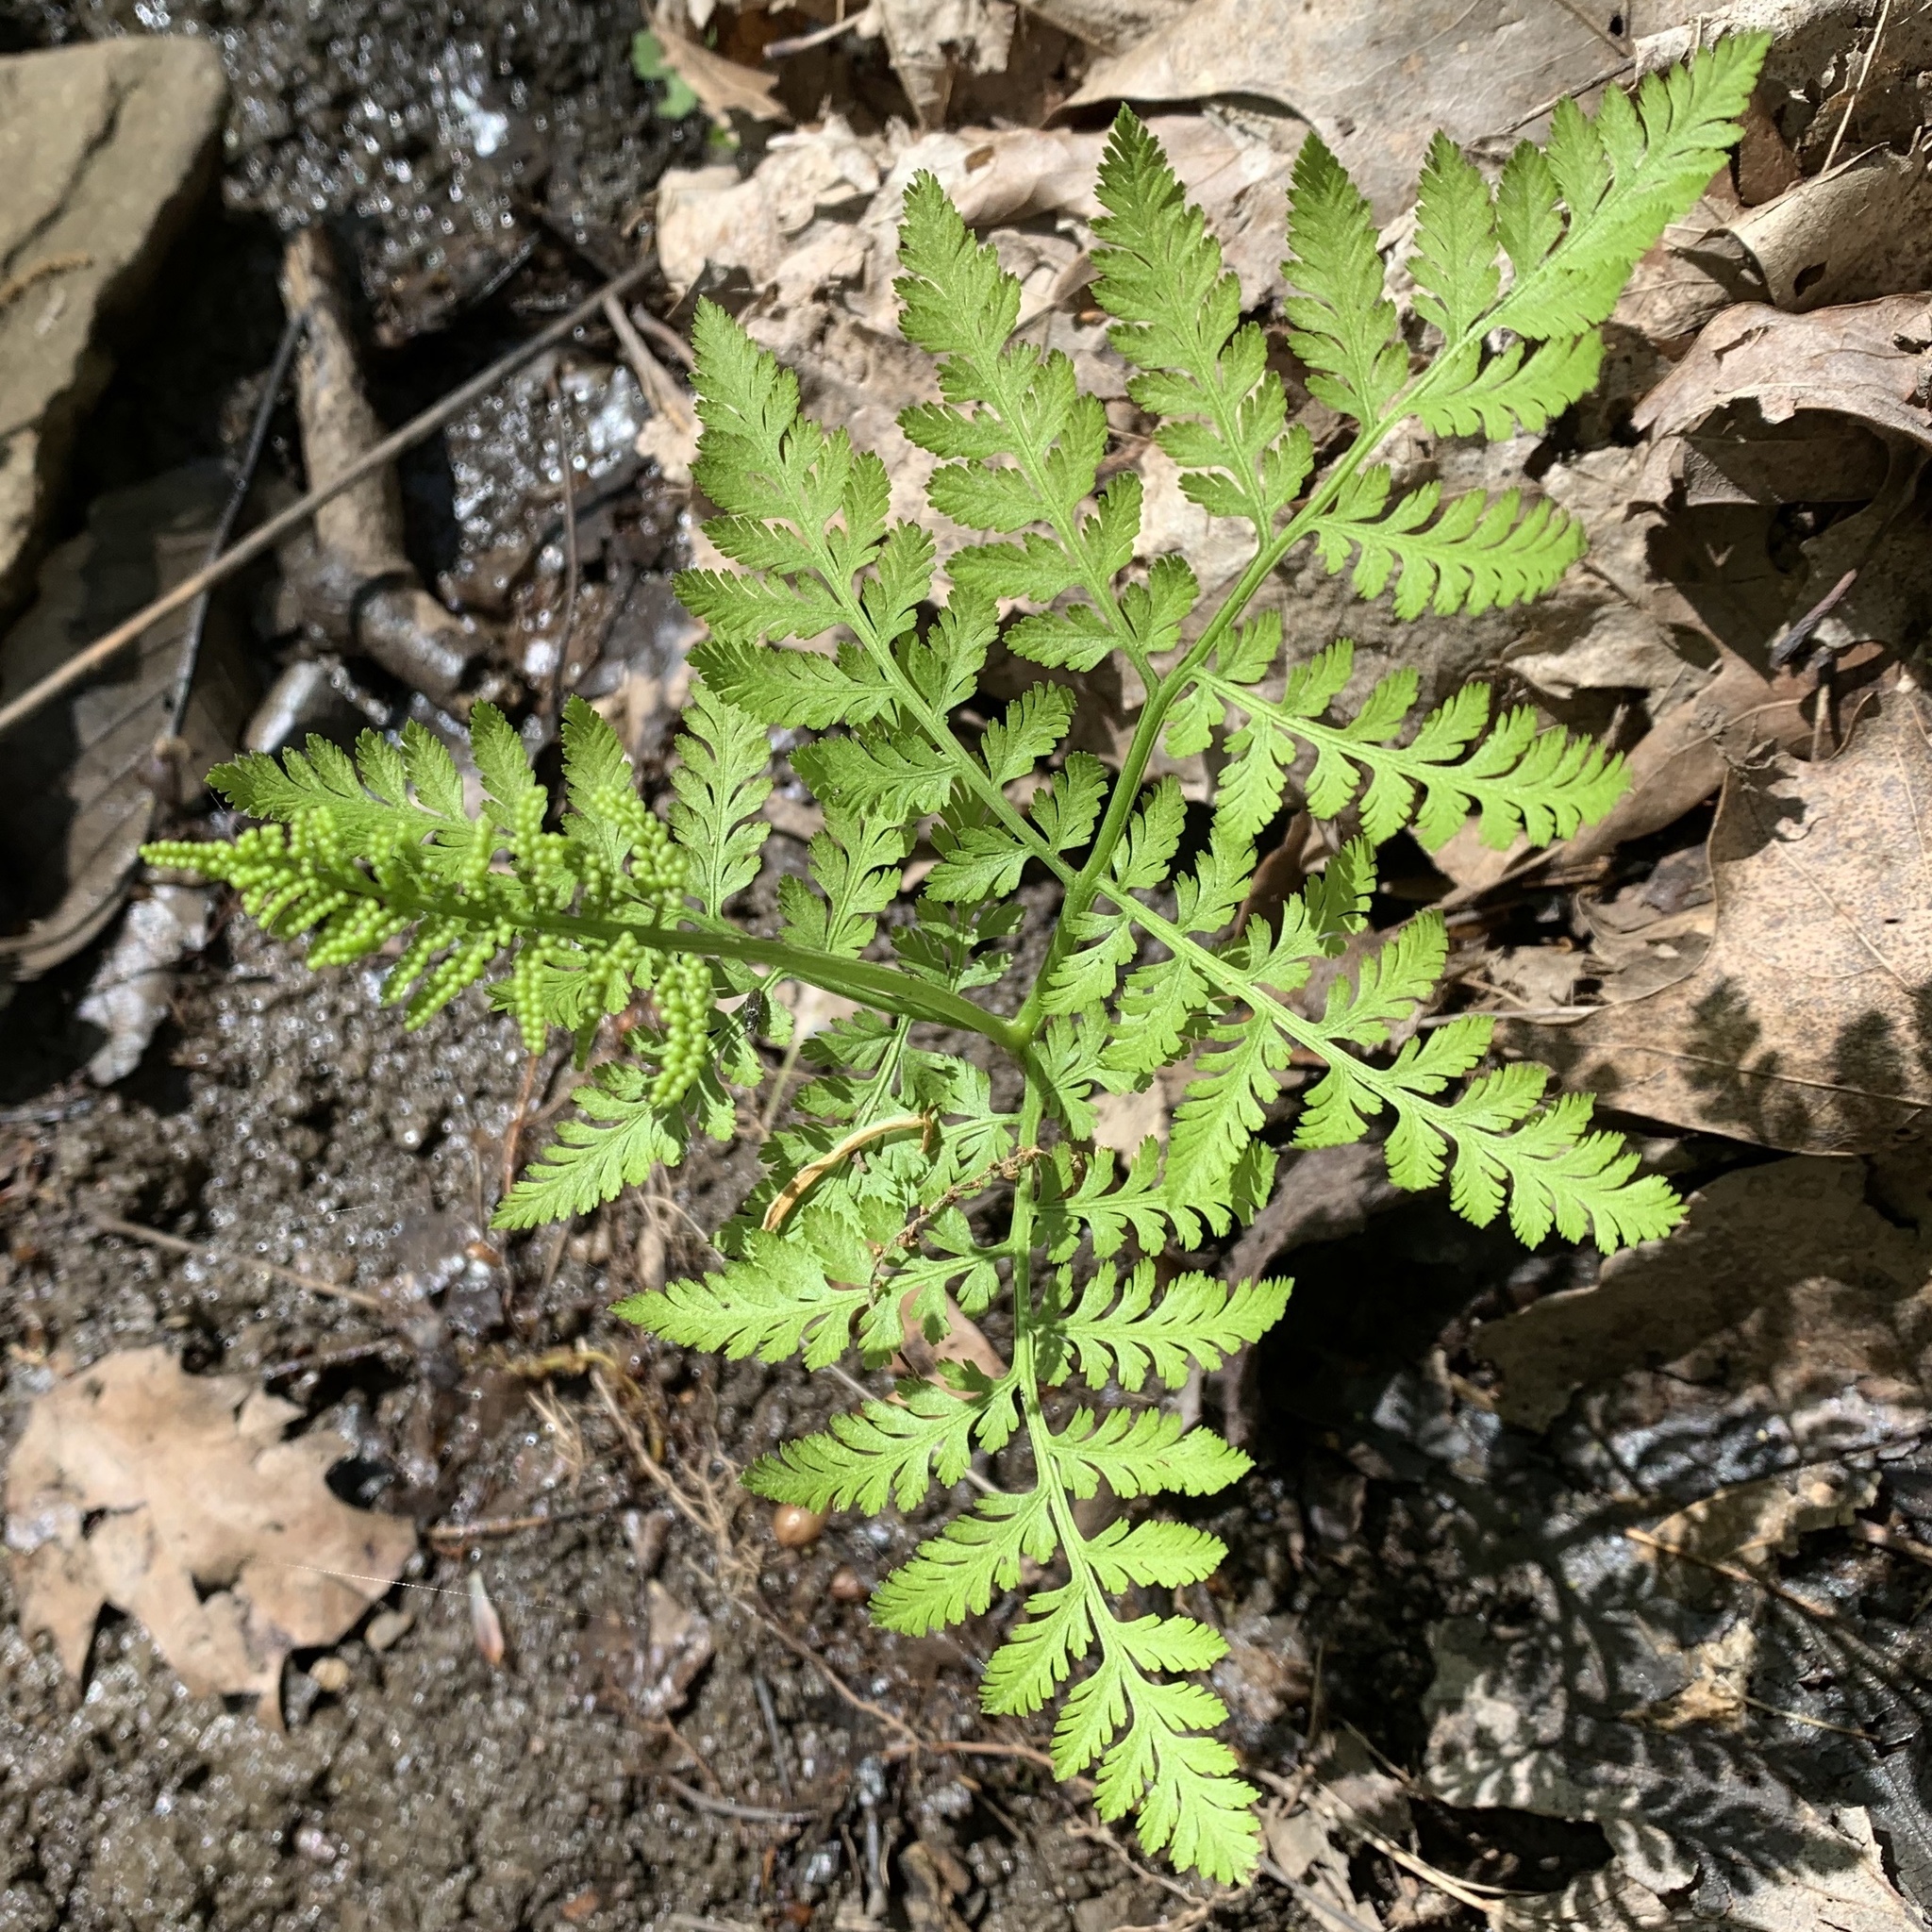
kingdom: Plantae
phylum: Tracheophyta
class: Polypodiopsida
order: Ophioglossales
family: Ophioglossaceae
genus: Botrypus
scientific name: Botrypus virginianus
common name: Common grapefern
